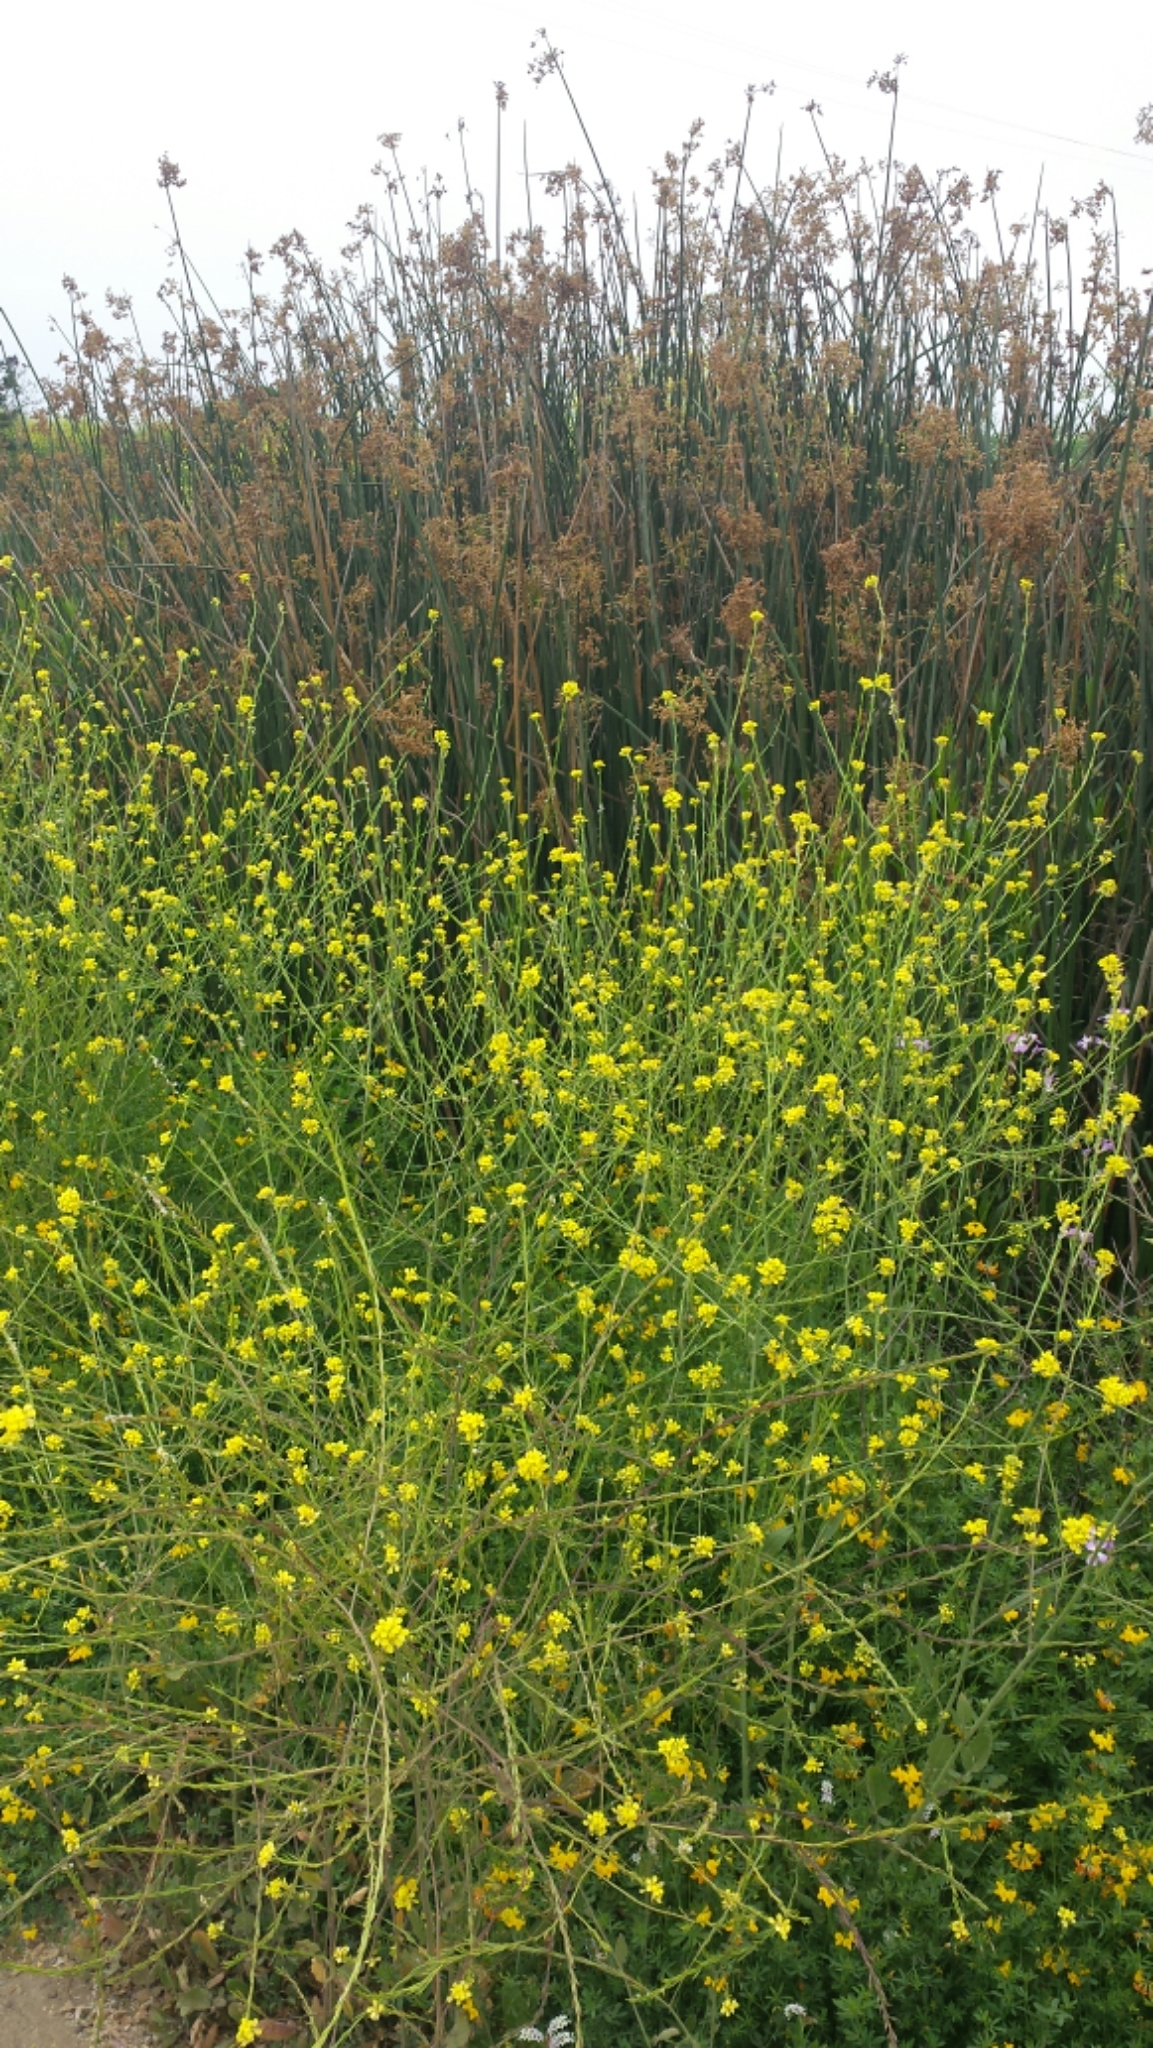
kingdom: Plantae
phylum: Tracheophyta
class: Magnoliopsida
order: Brassicales
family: Brassicaceae
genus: Hirschfeldia
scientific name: Hirschfeldia incana
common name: Hoary mustard
